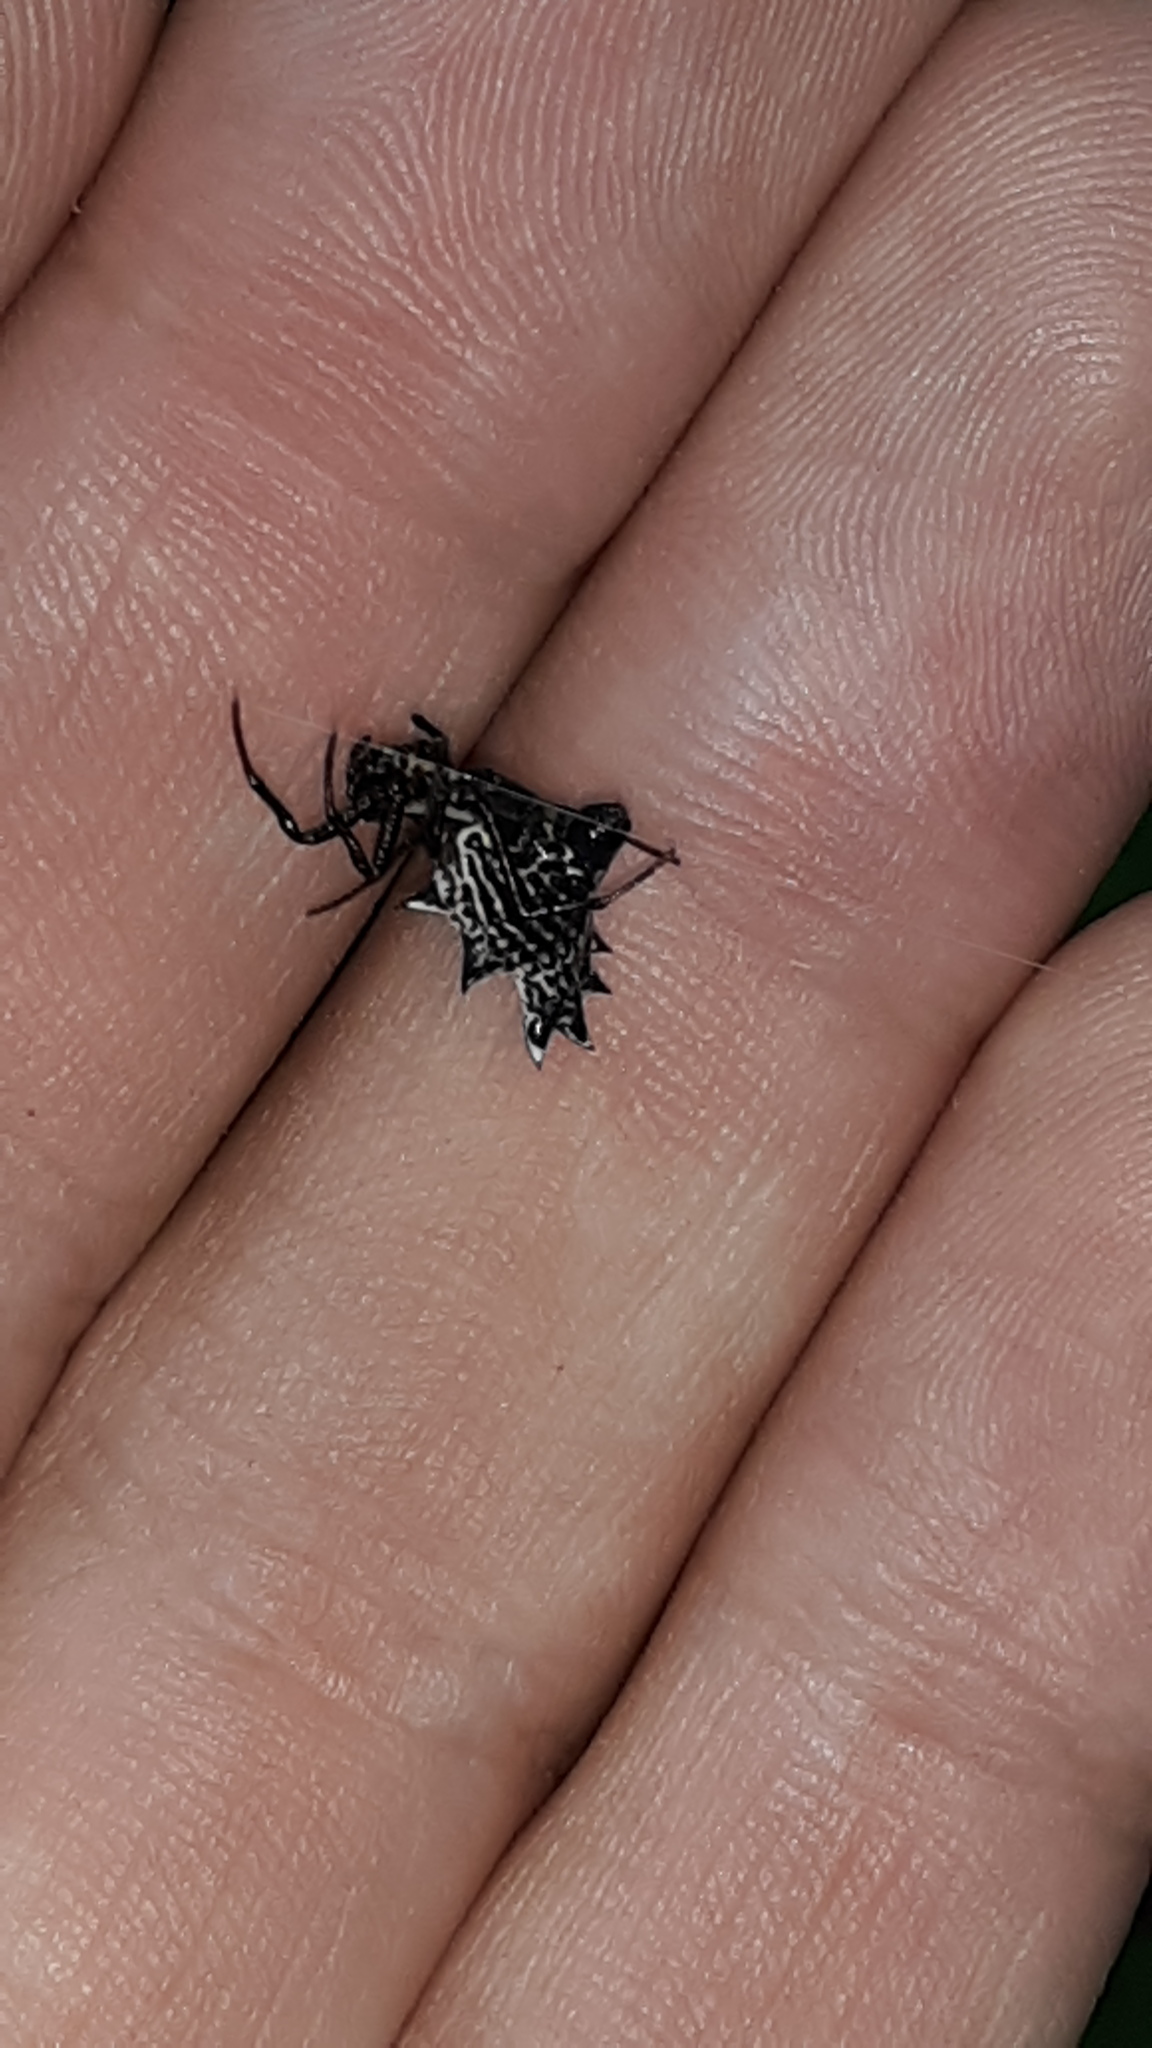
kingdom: Animalia
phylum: Arthropoda
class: Arachnida
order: Araneae
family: Araneidae
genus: Micrathena
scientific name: Micrathena gracilis
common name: Orb weavers
